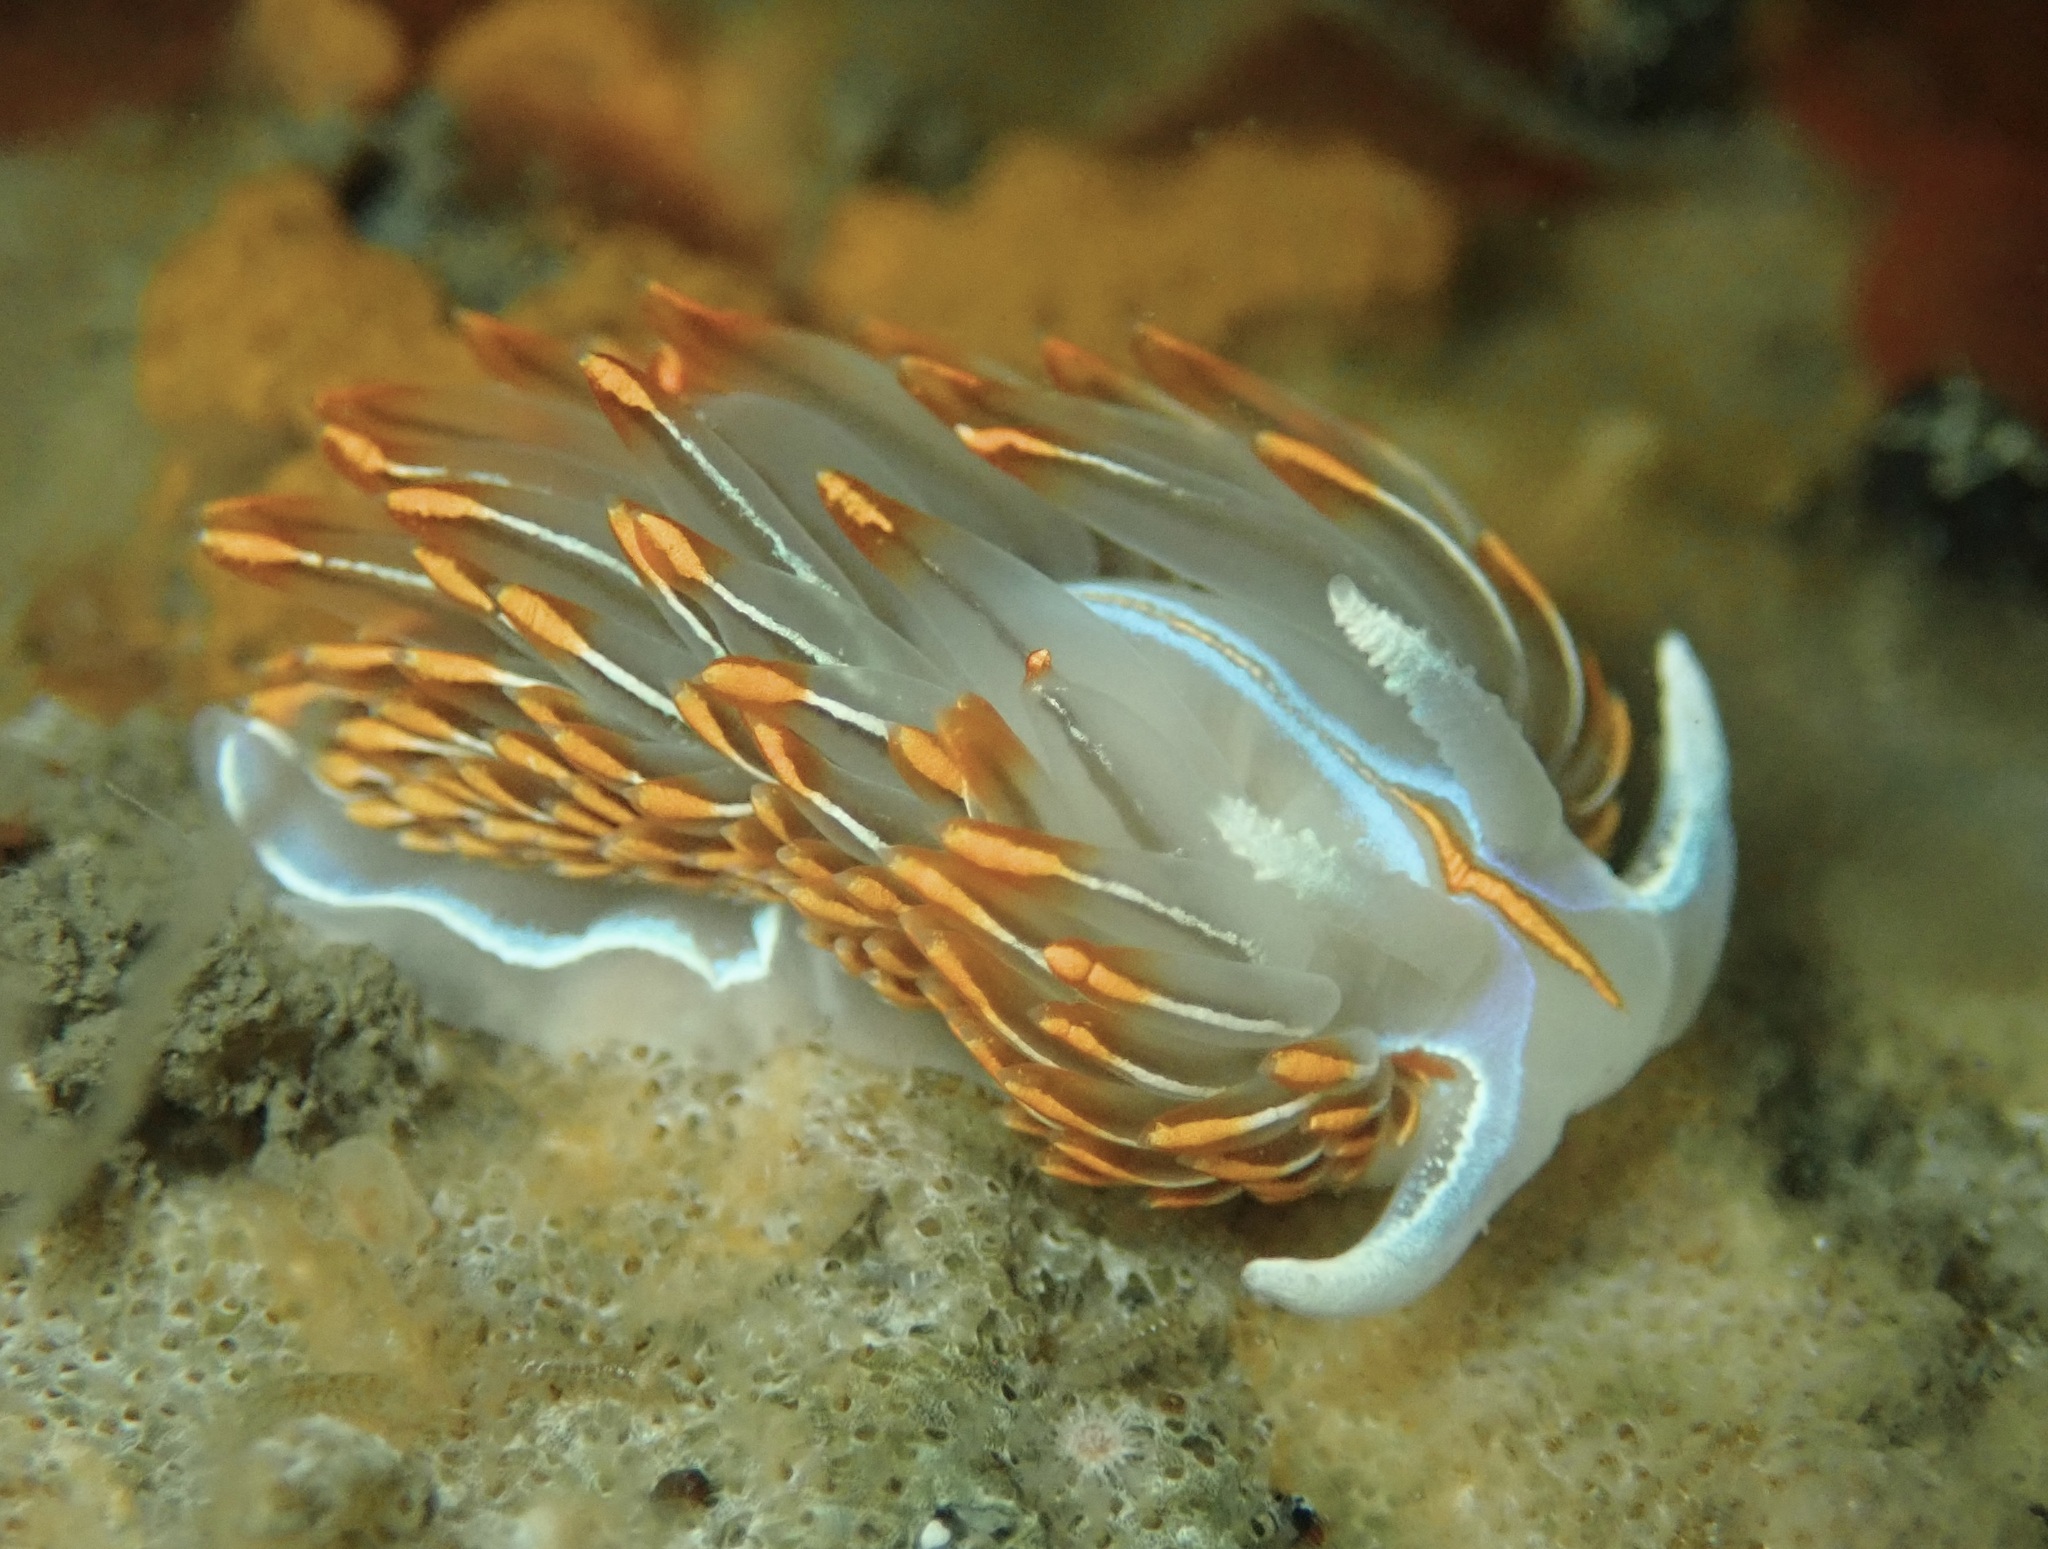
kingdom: Animalia
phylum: Mollusca
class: Gastropoda
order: Nudibranchia
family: Myrrhinidae
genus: Hermissenda
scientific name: Hermissenda crassicornis
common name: Hermissenda
